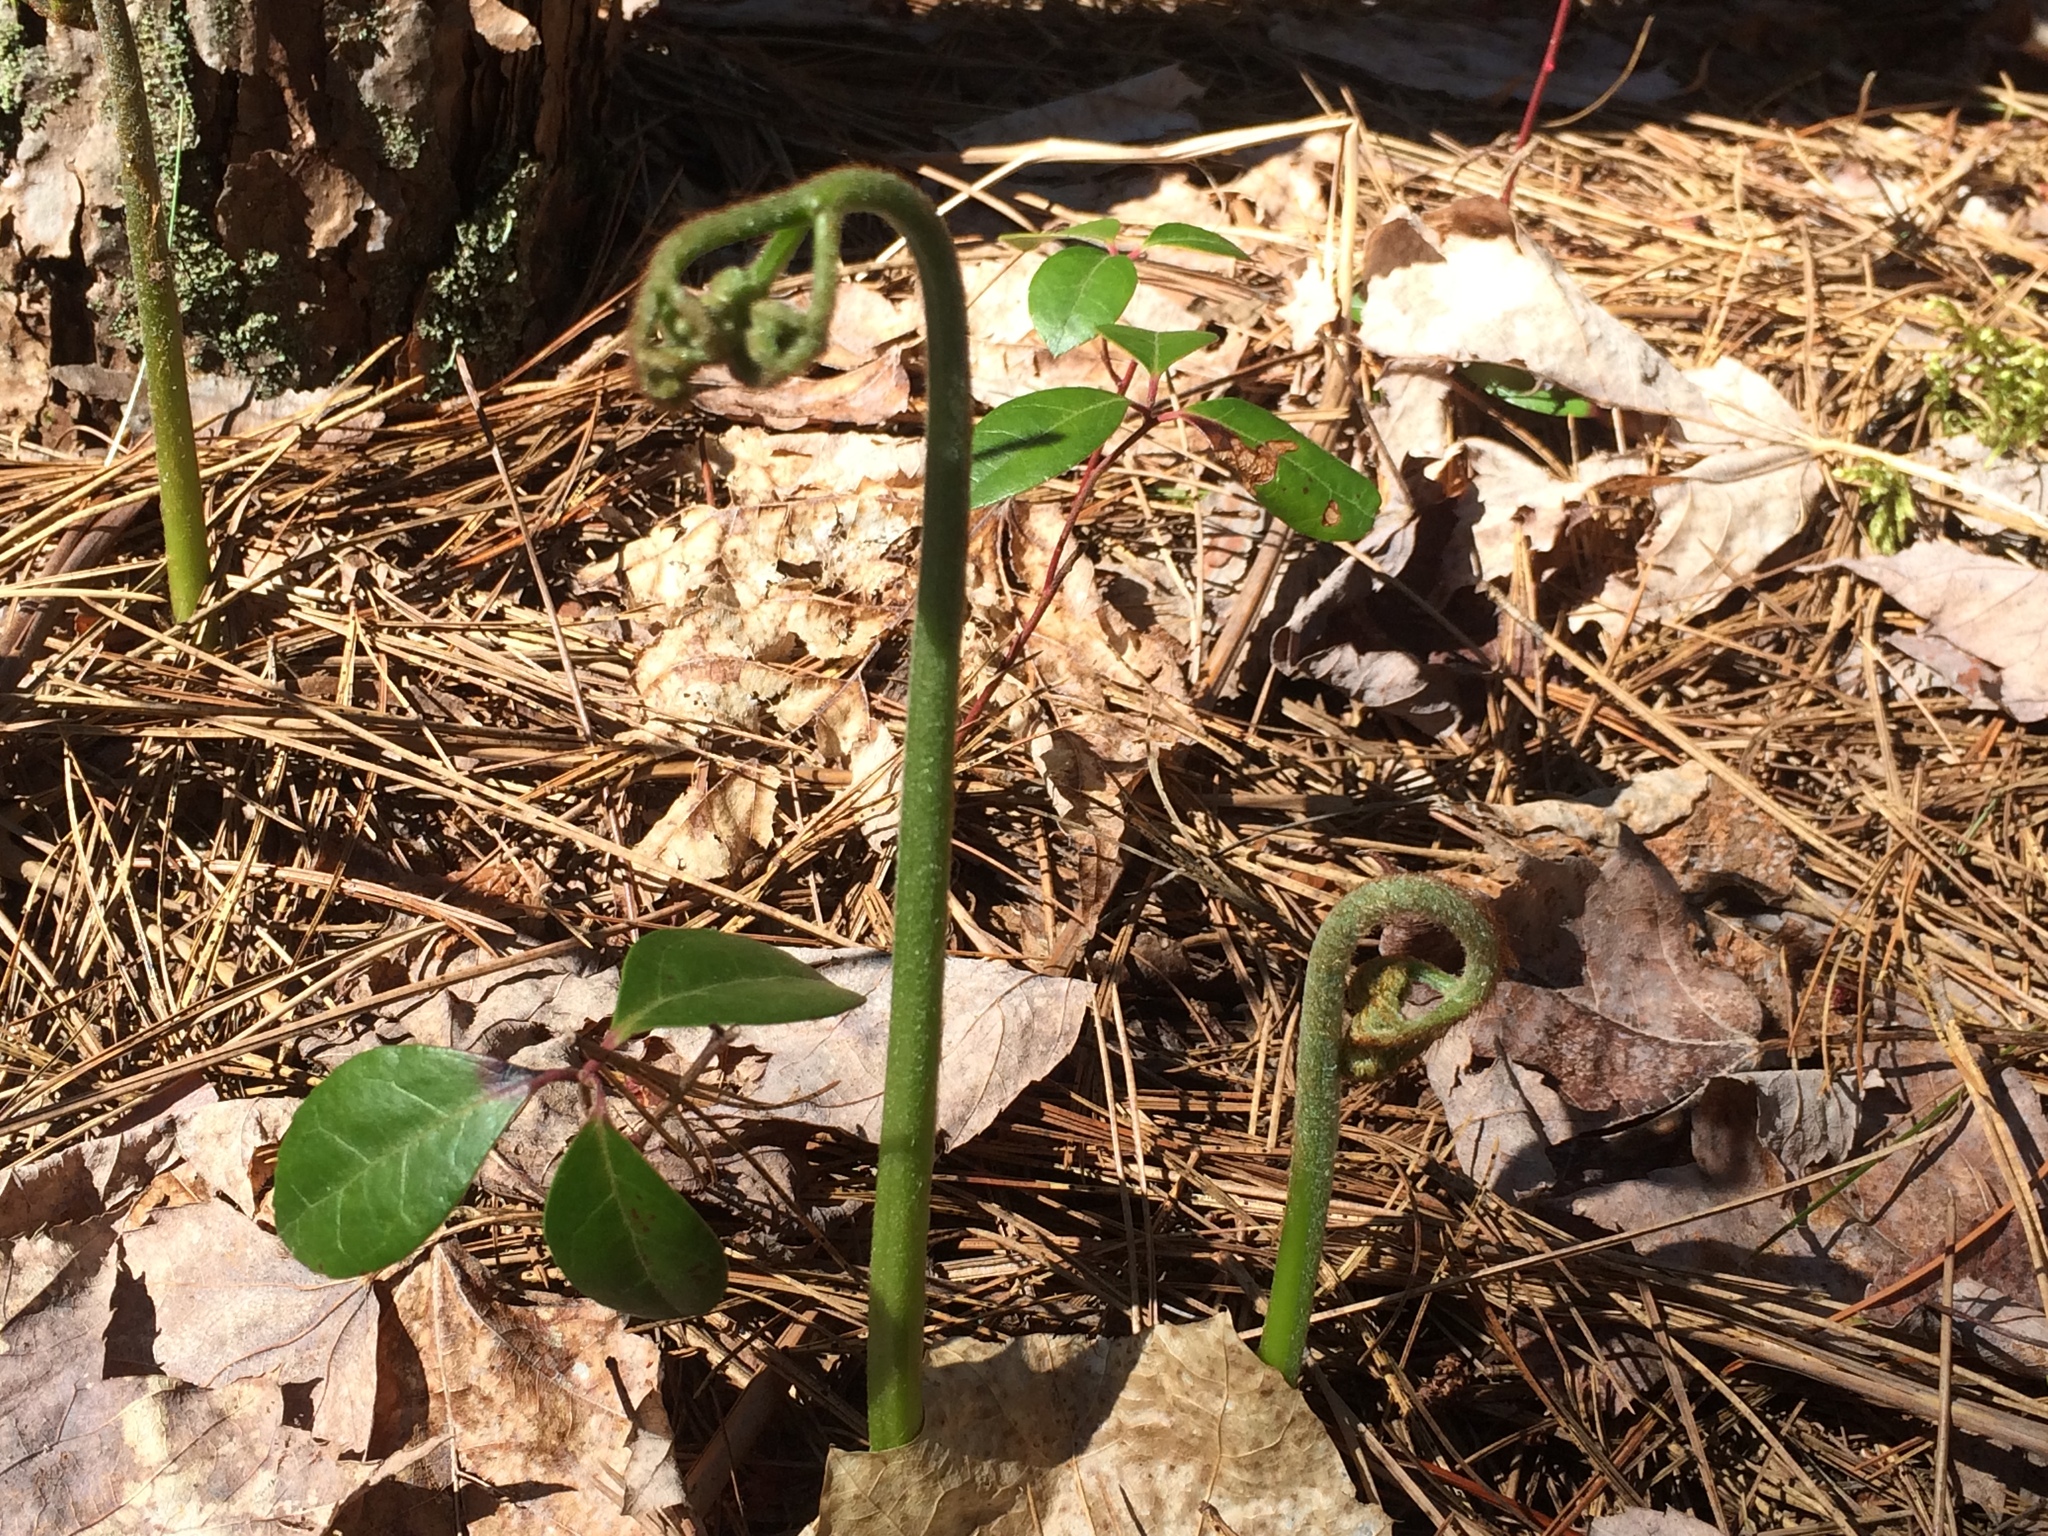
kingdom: Plantae
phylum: Tracheophyta
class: Polypodiopsida
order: Polypodiales
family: Dennstaedtiaceae
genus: Pteridium
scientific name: Pteridium aquilinum
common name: Bracken
